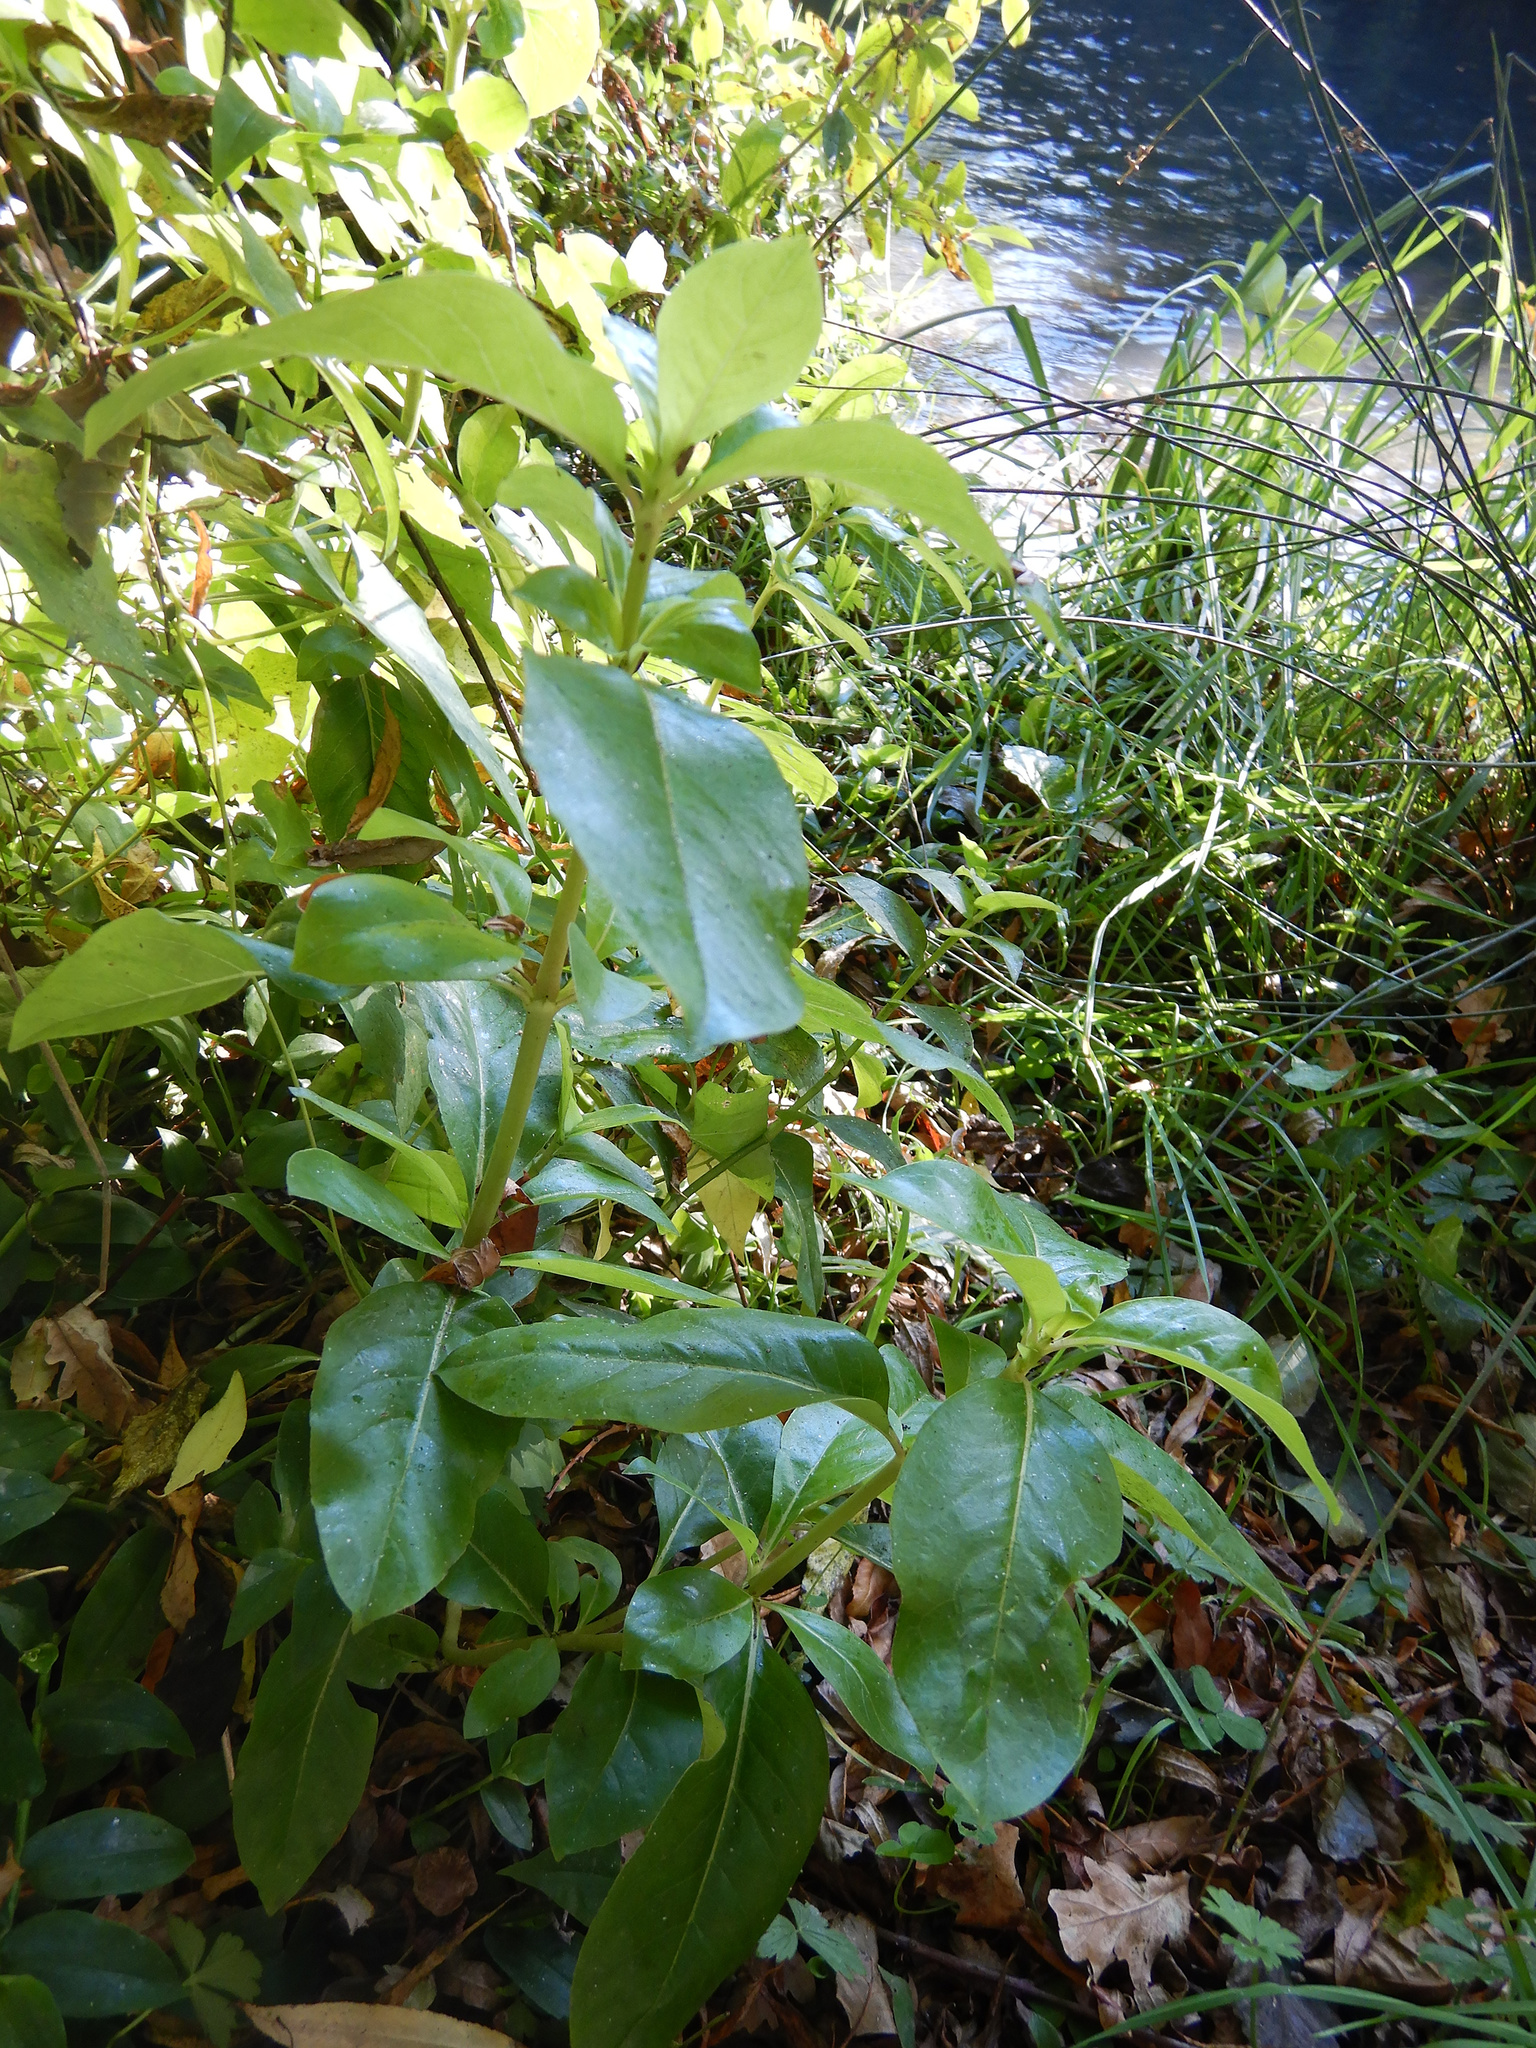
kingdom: Plantae
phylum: Tracheophyta
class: Magnoliopsida
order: Gentianales
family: Rubiaceae
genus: Coprosma
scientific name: Coprosma robusta
